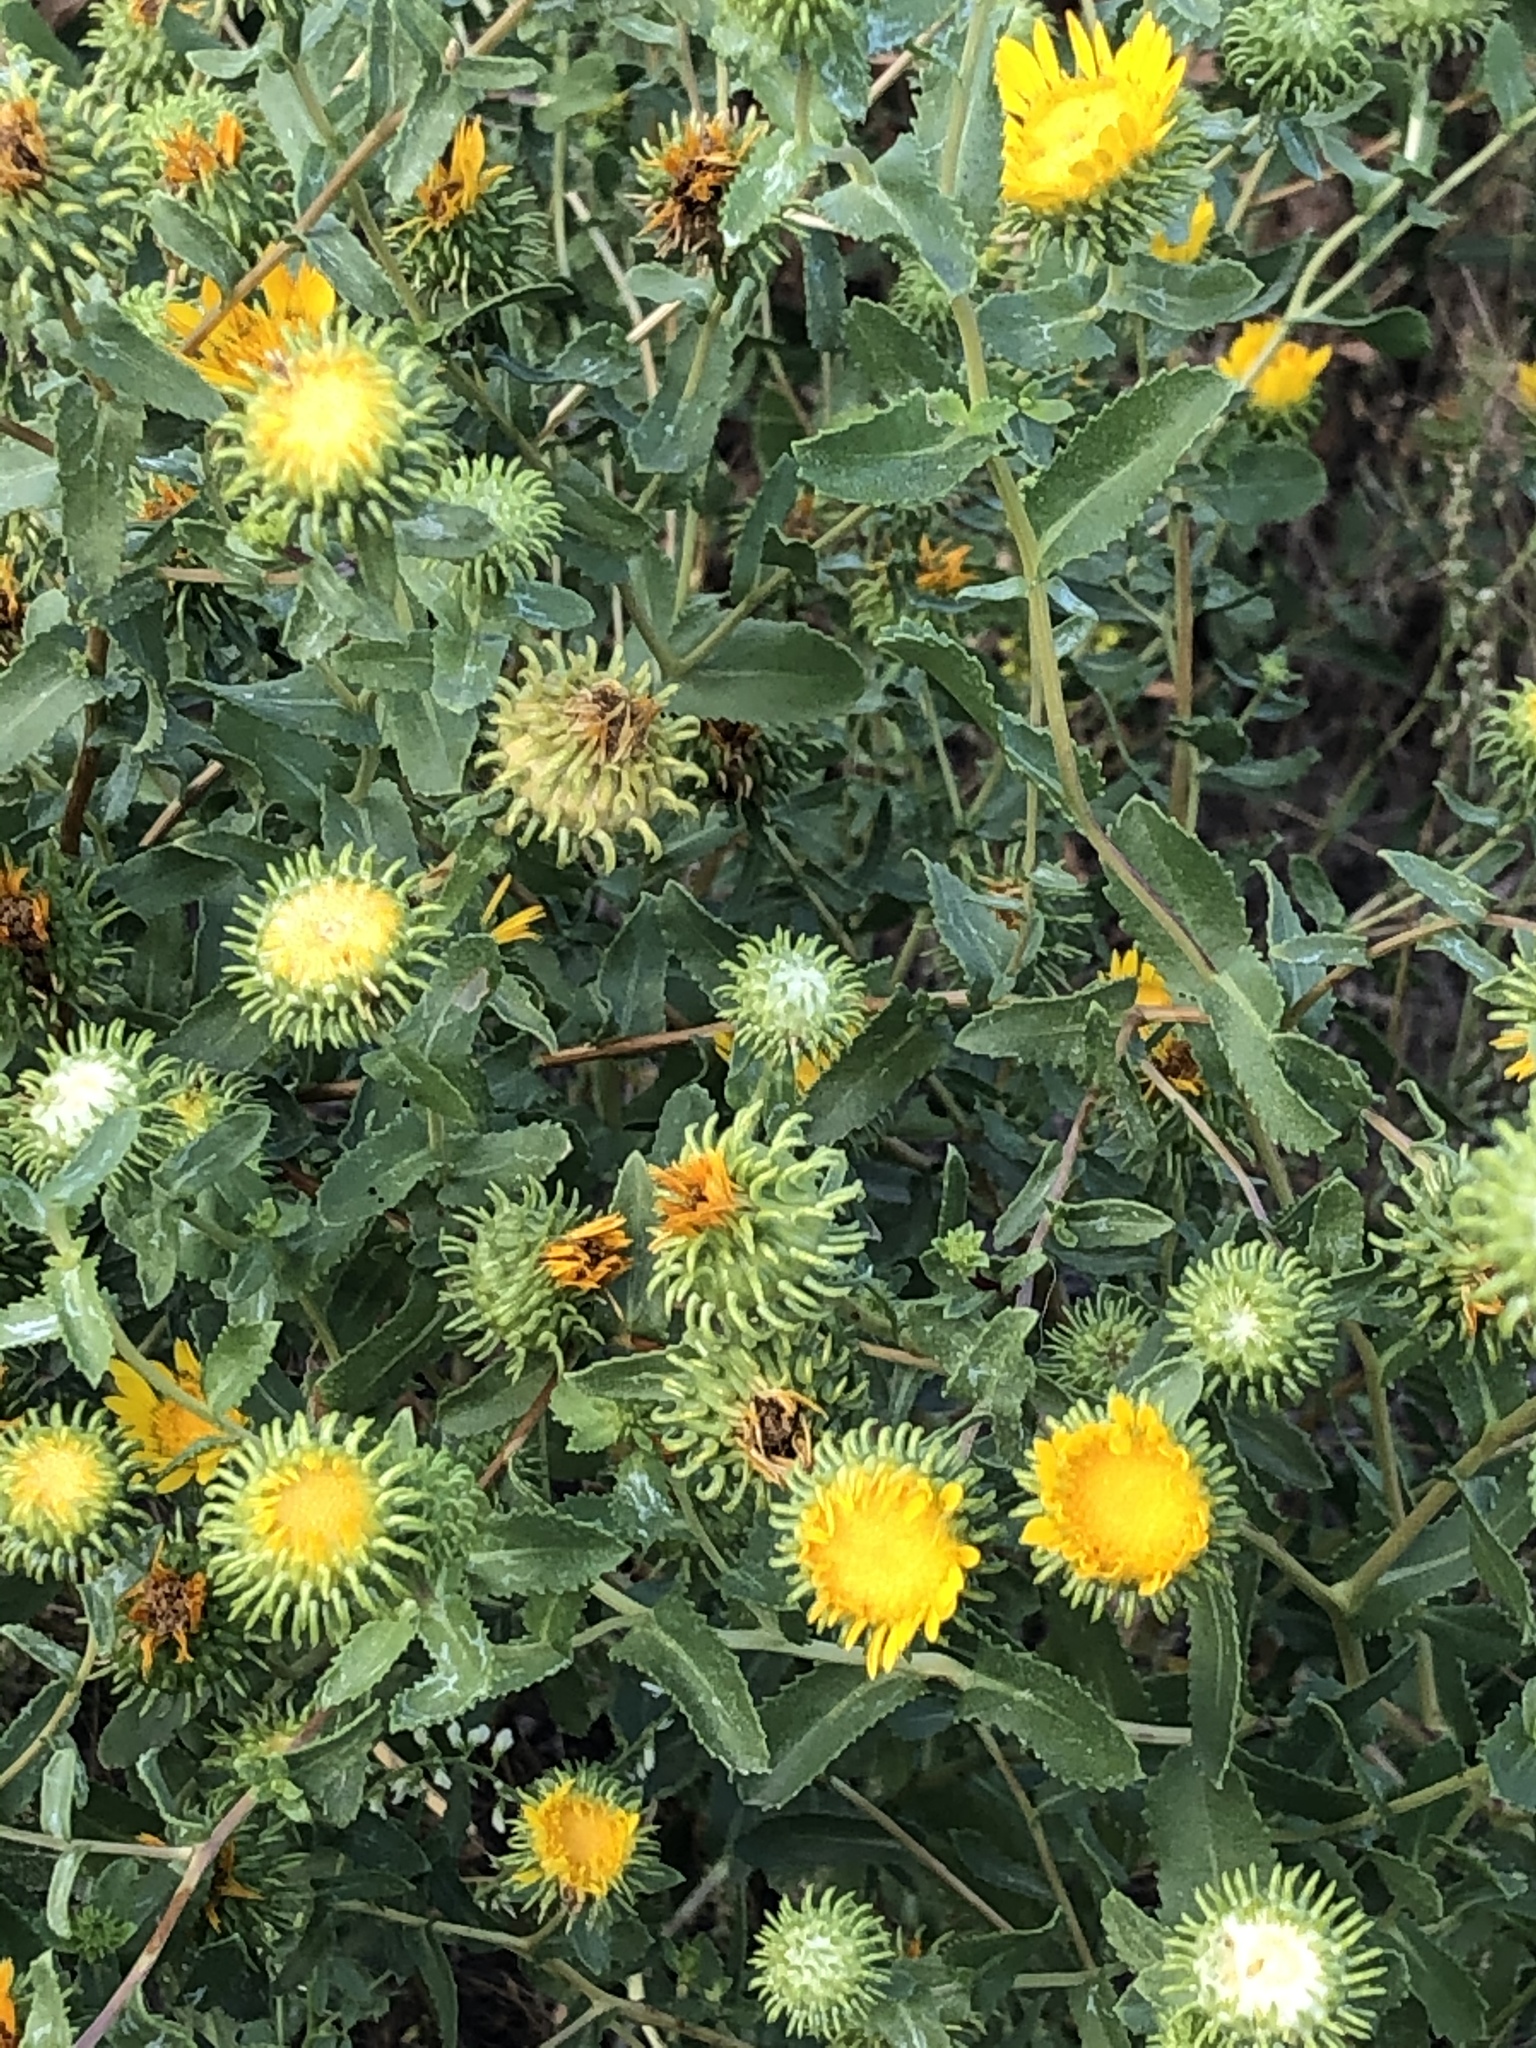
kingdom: Plantae
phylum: Tracheophyta
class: Magnoliopsida
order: Asterales
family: Asteraceae
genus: Grindelia
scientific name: Grindelia squarrosa
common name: Curly-cup gumweed
